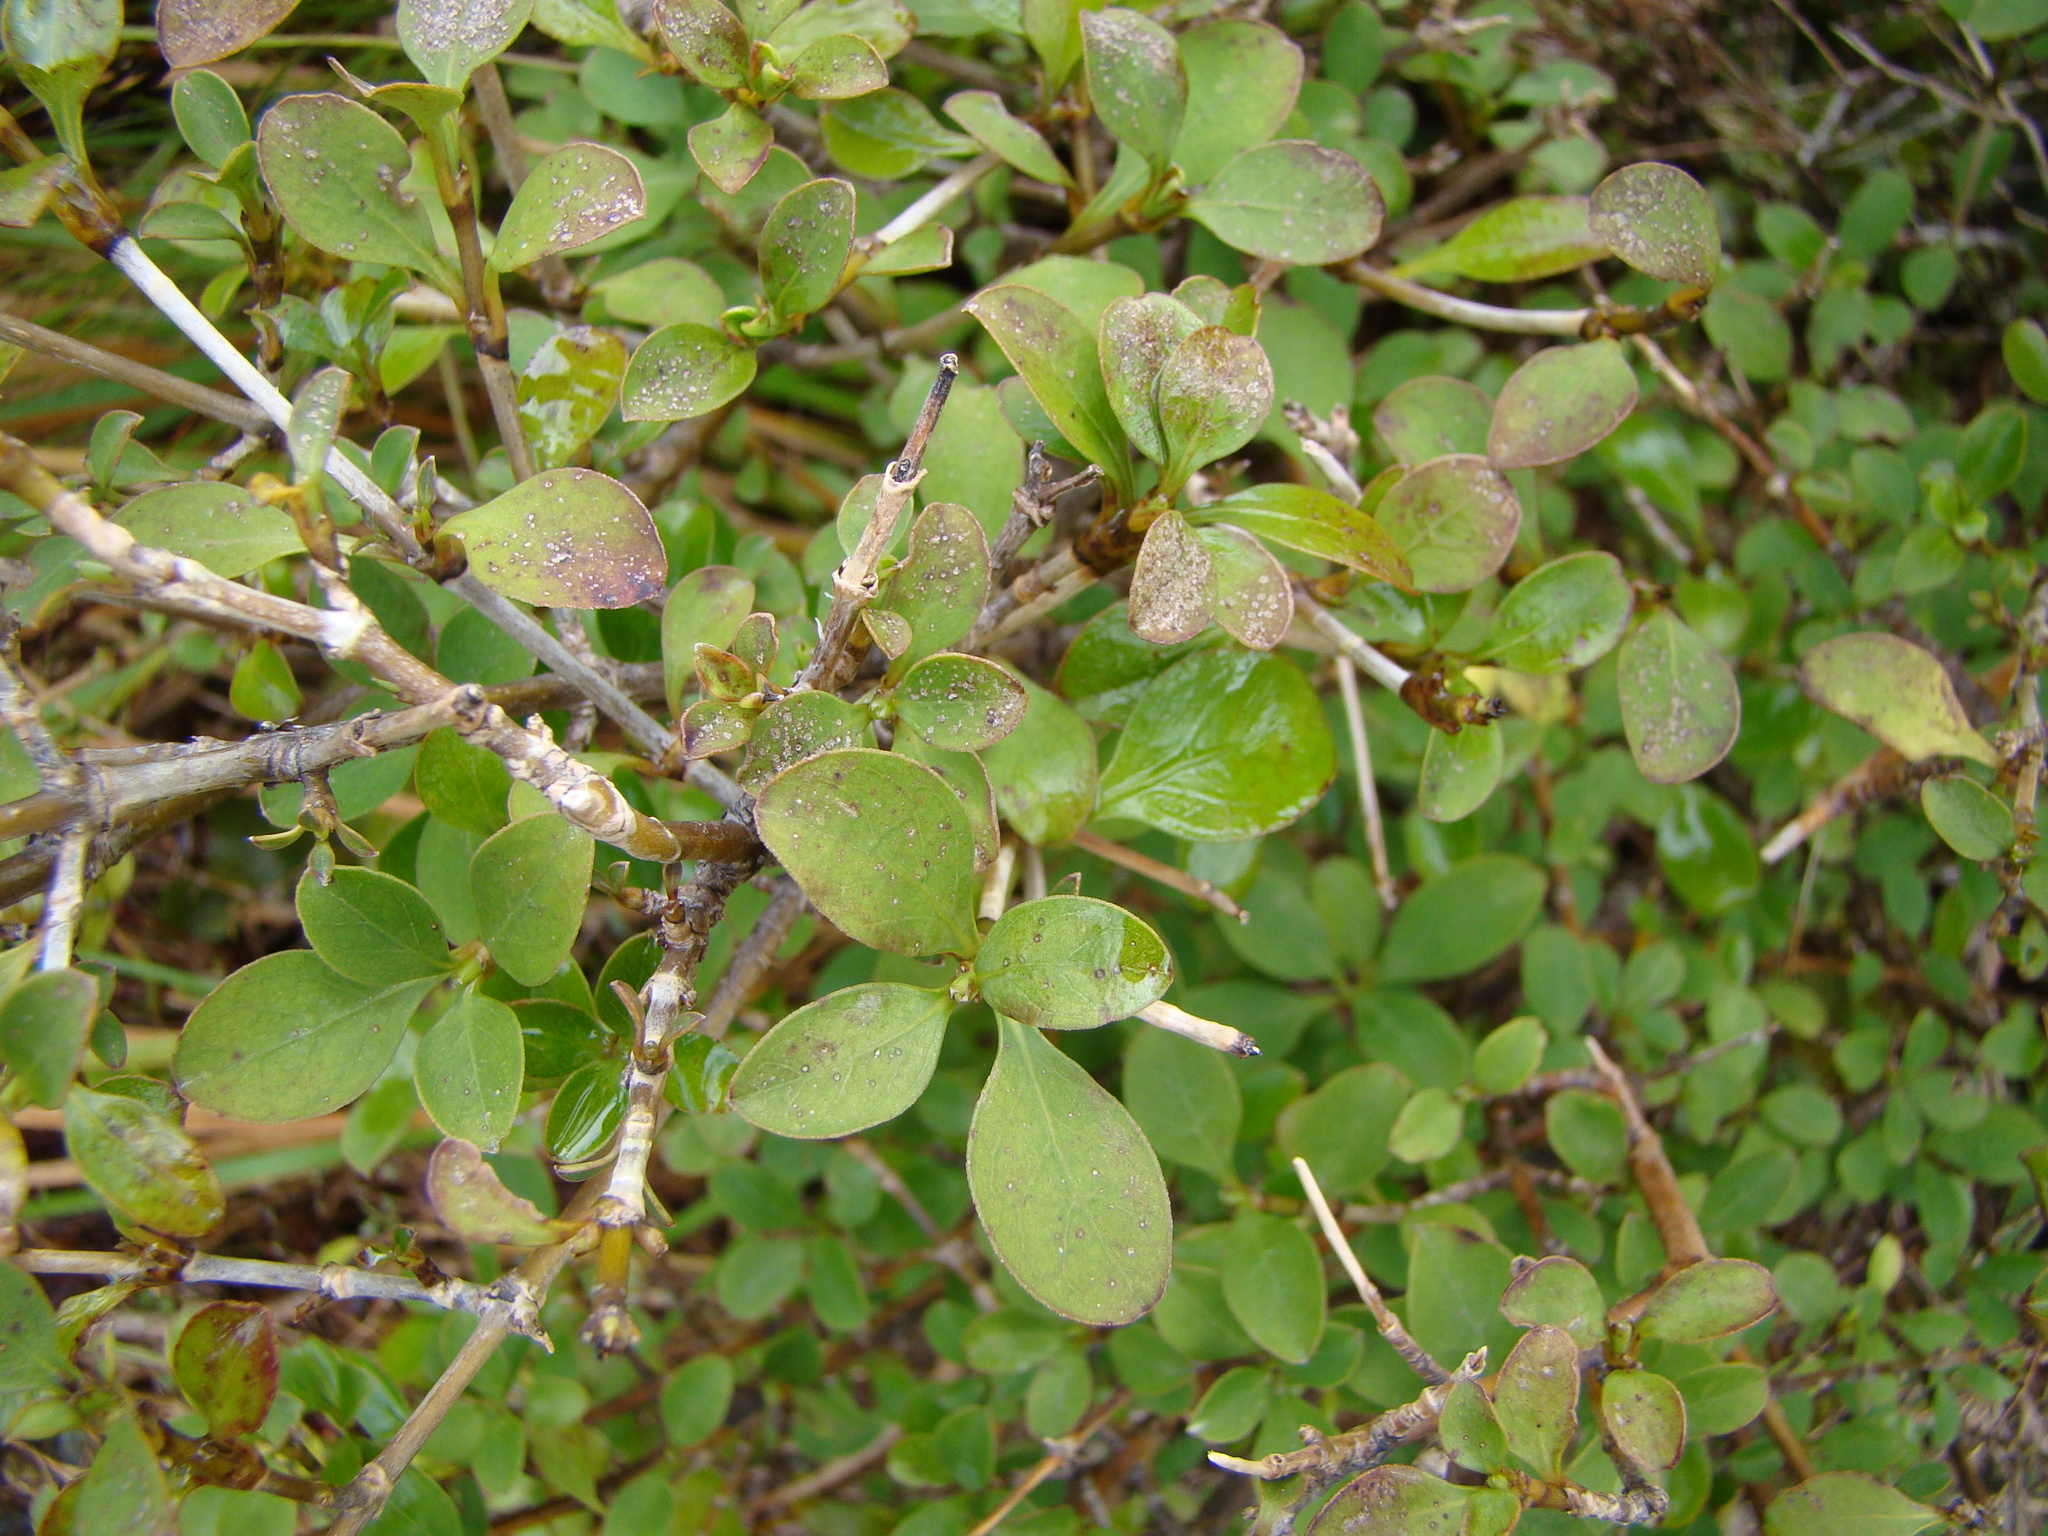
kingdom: Plantae
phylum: Tracheophyta
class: Magnoliopsida
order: Gentianales
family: Rubiaceae
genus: Coprosma
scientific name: Coprosma foetidissima
